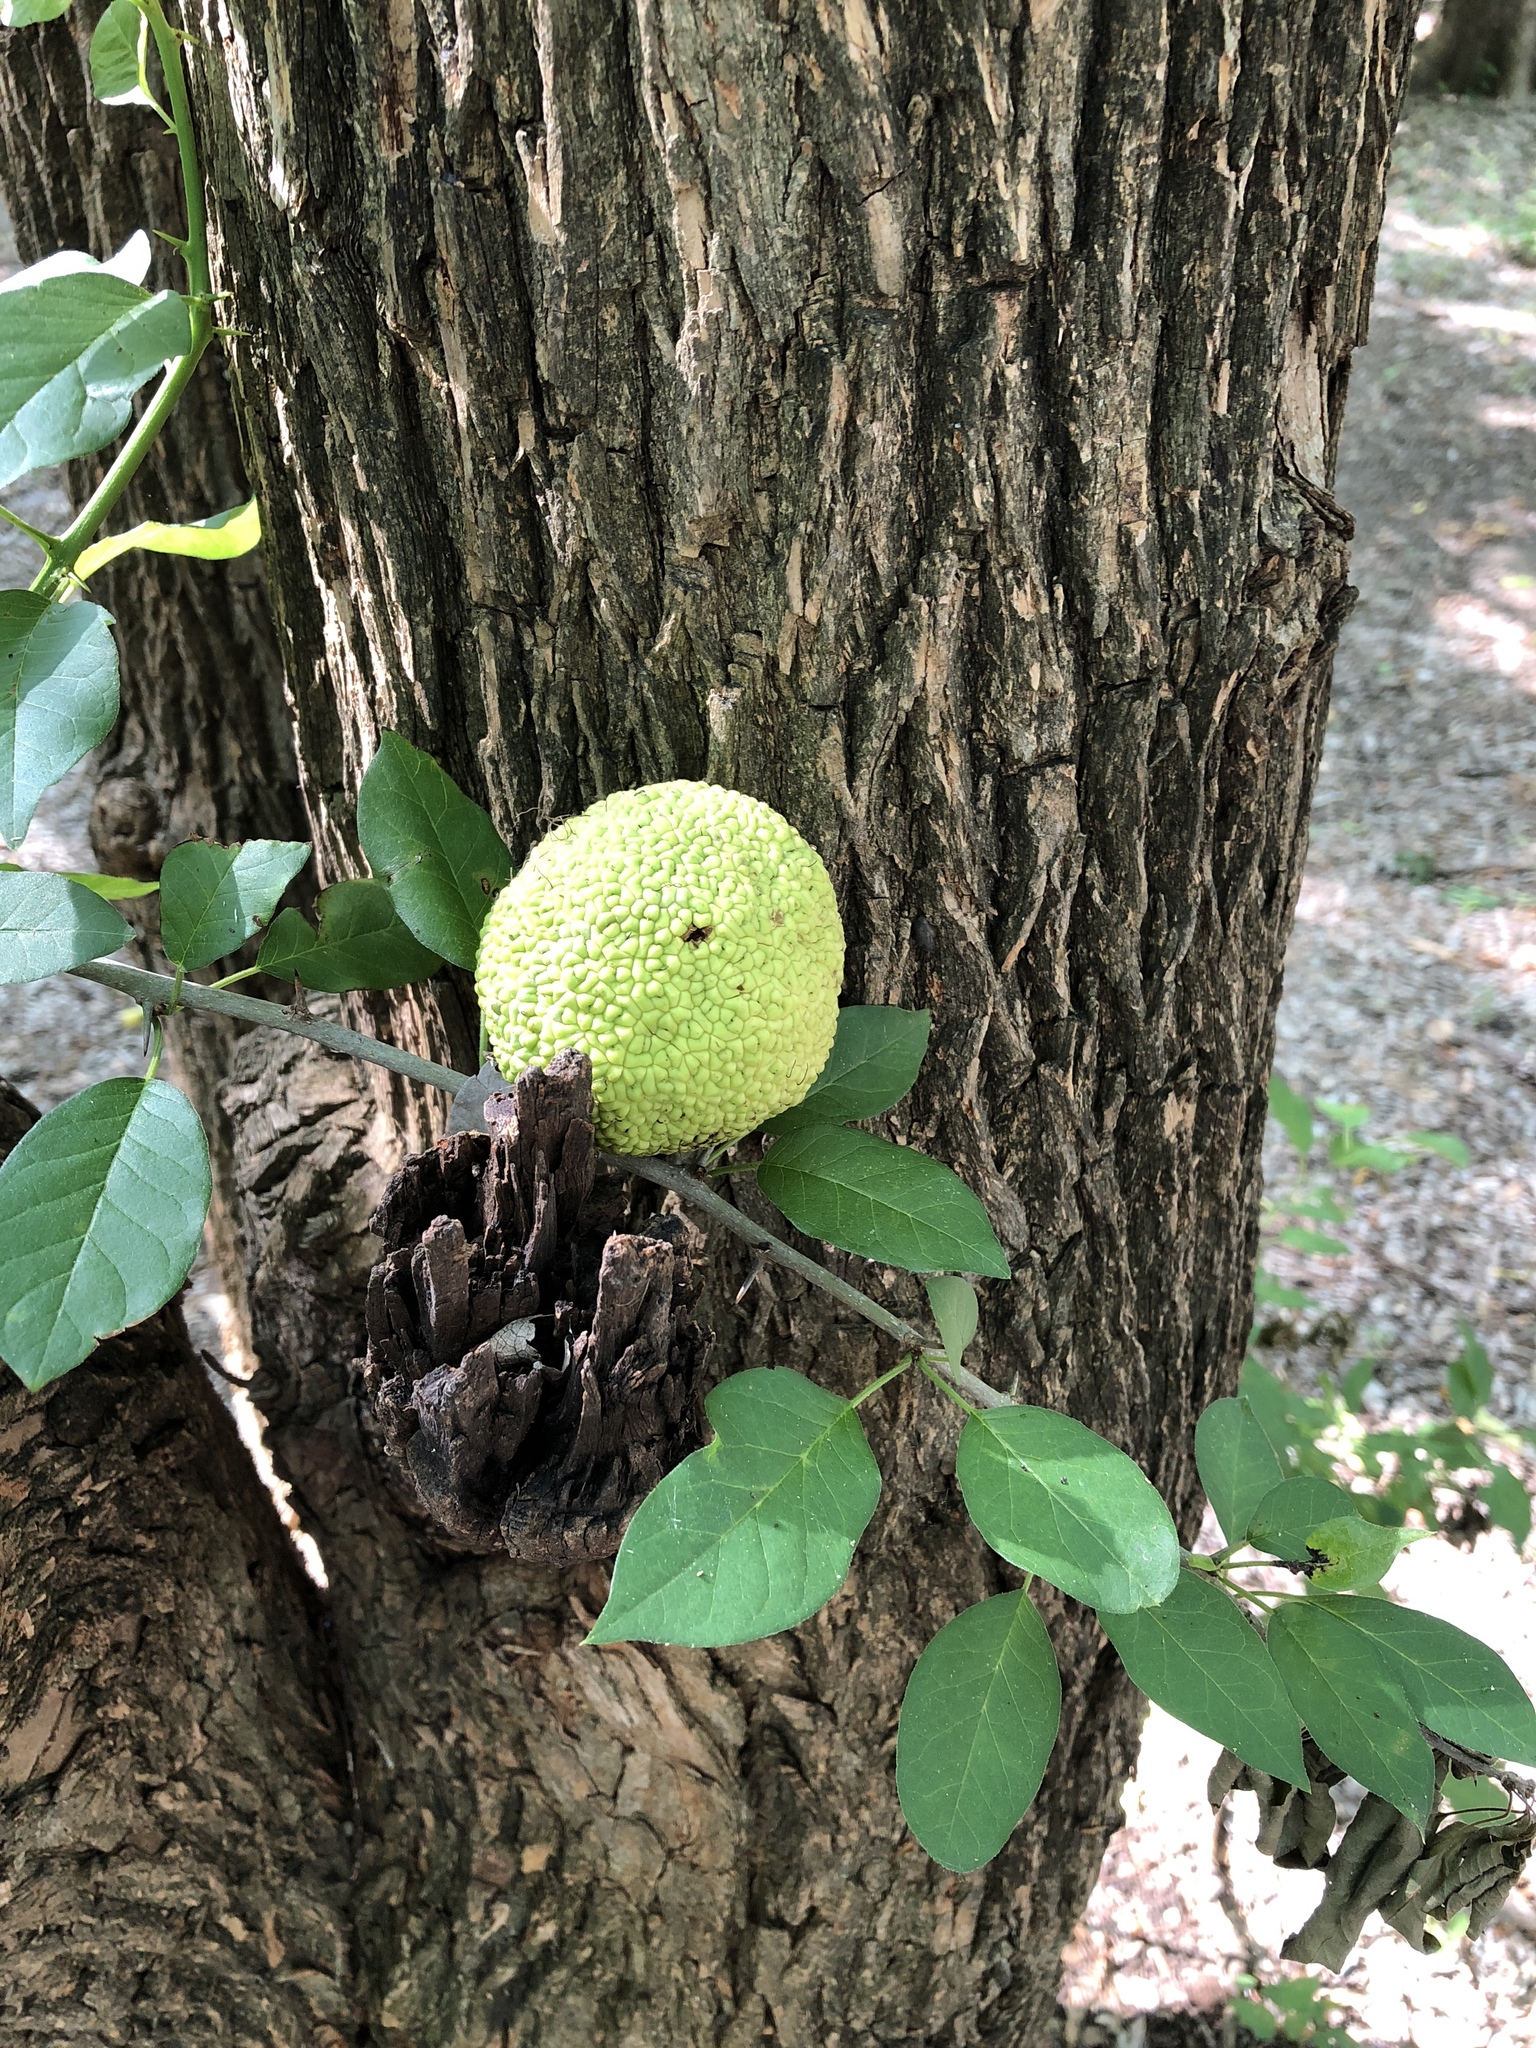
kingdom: Plantae
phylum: Tracheophyta
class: Magnoliopsida
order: Rosales
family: Moraceae
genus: Maclura
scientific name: Maclura pomifera
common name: Osage-orange
